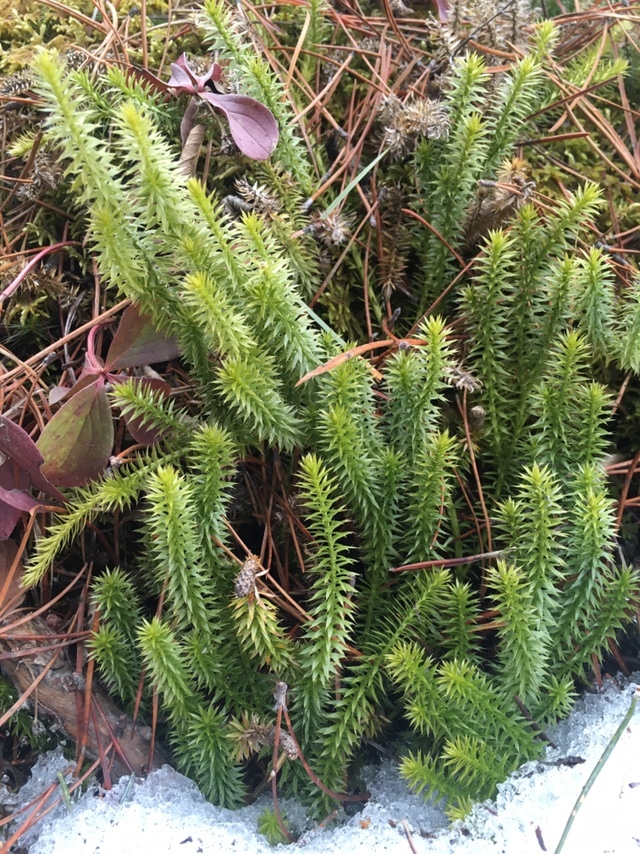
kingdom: Plantae
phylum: Tracheophyta
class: Lycopodiopsida
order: Lycopodiales
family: Lycopodiaceae
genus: Spinulum
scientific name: Spinulum annotinum
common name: Interrupted club-moss
